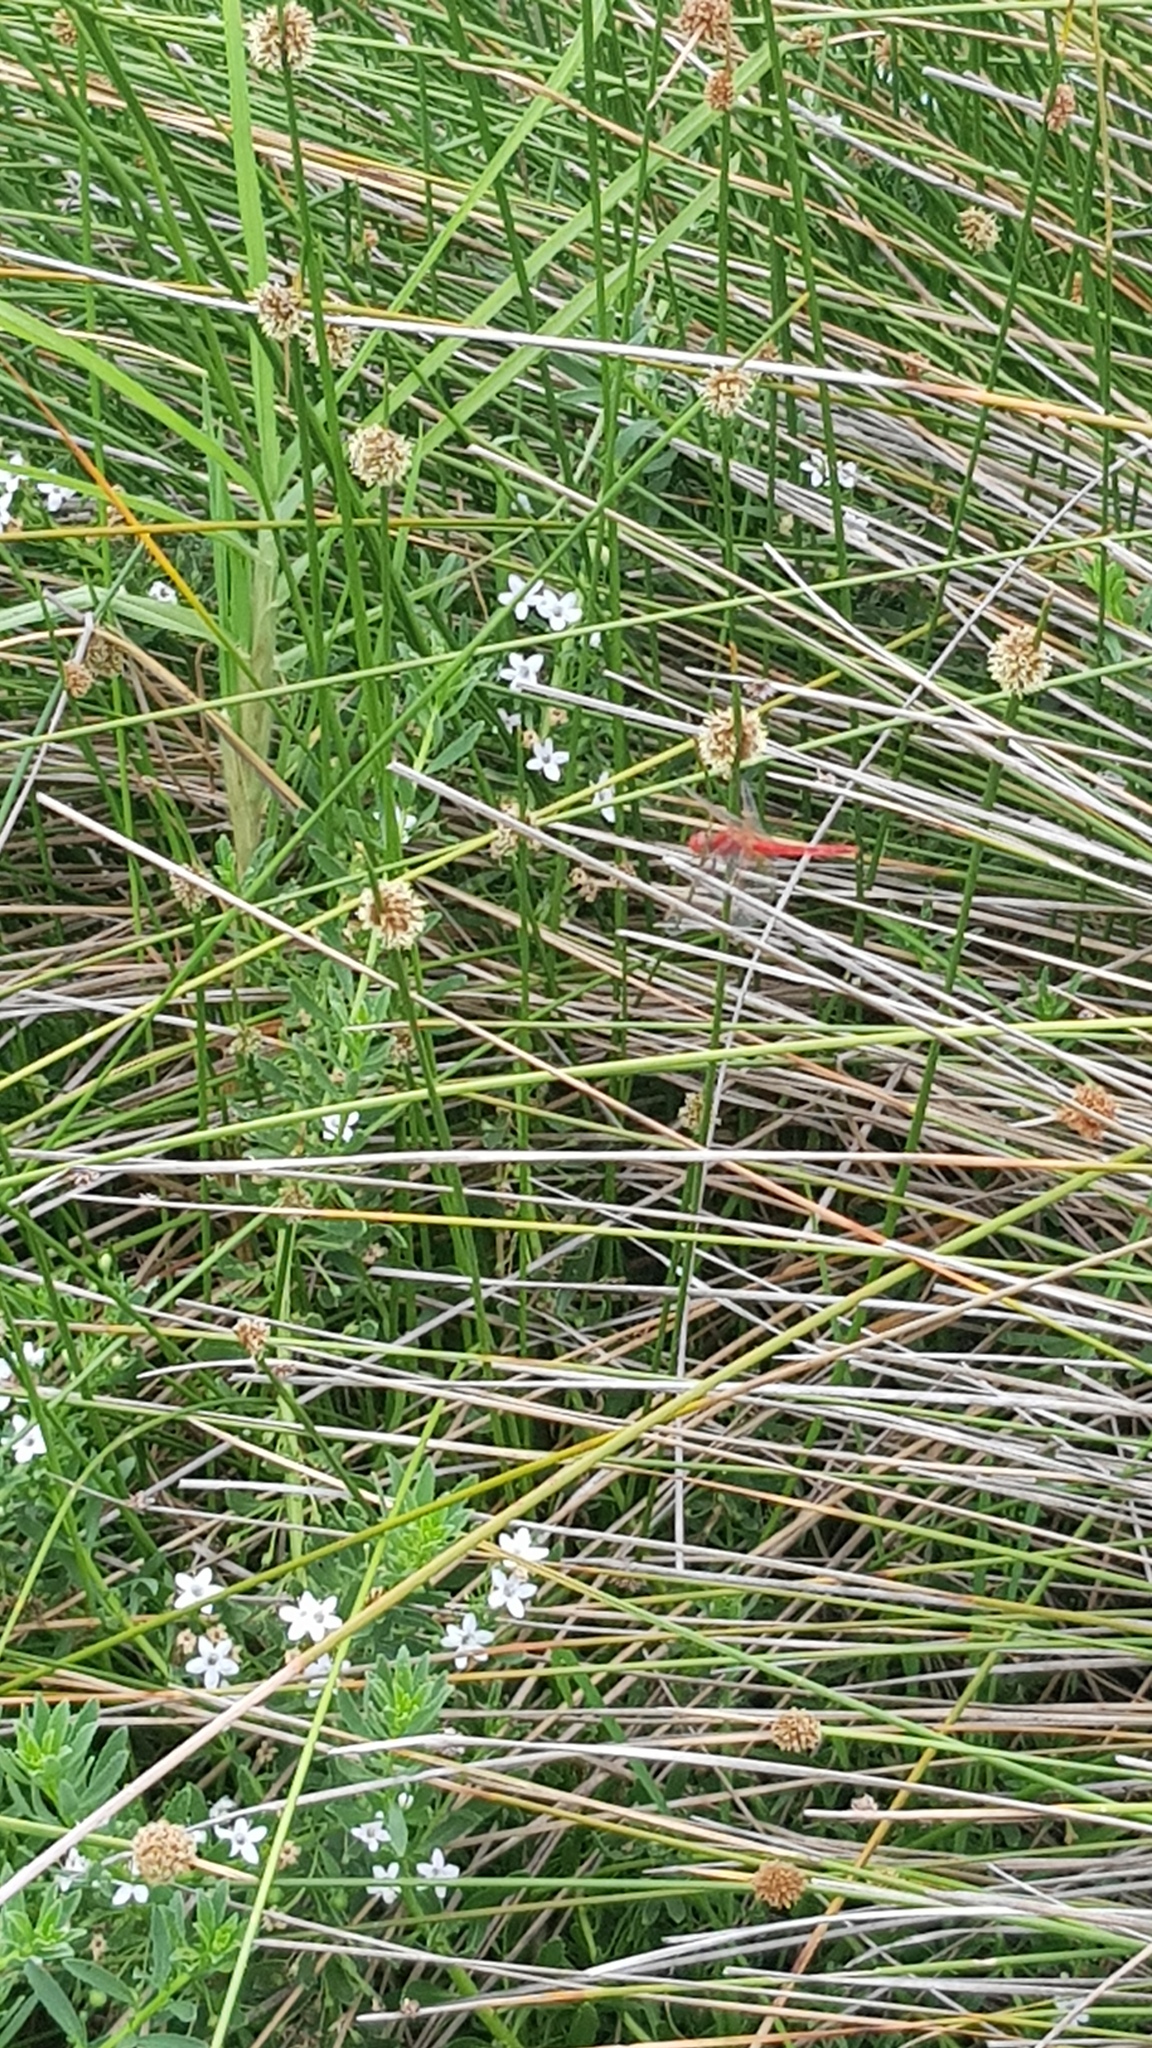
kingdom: Animalia
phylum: Arthropoda
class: Insecta
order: Odonata
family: Libellulidae
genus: Diplacodes
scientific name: Diplacodes haematodes
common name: Scarlet percher
